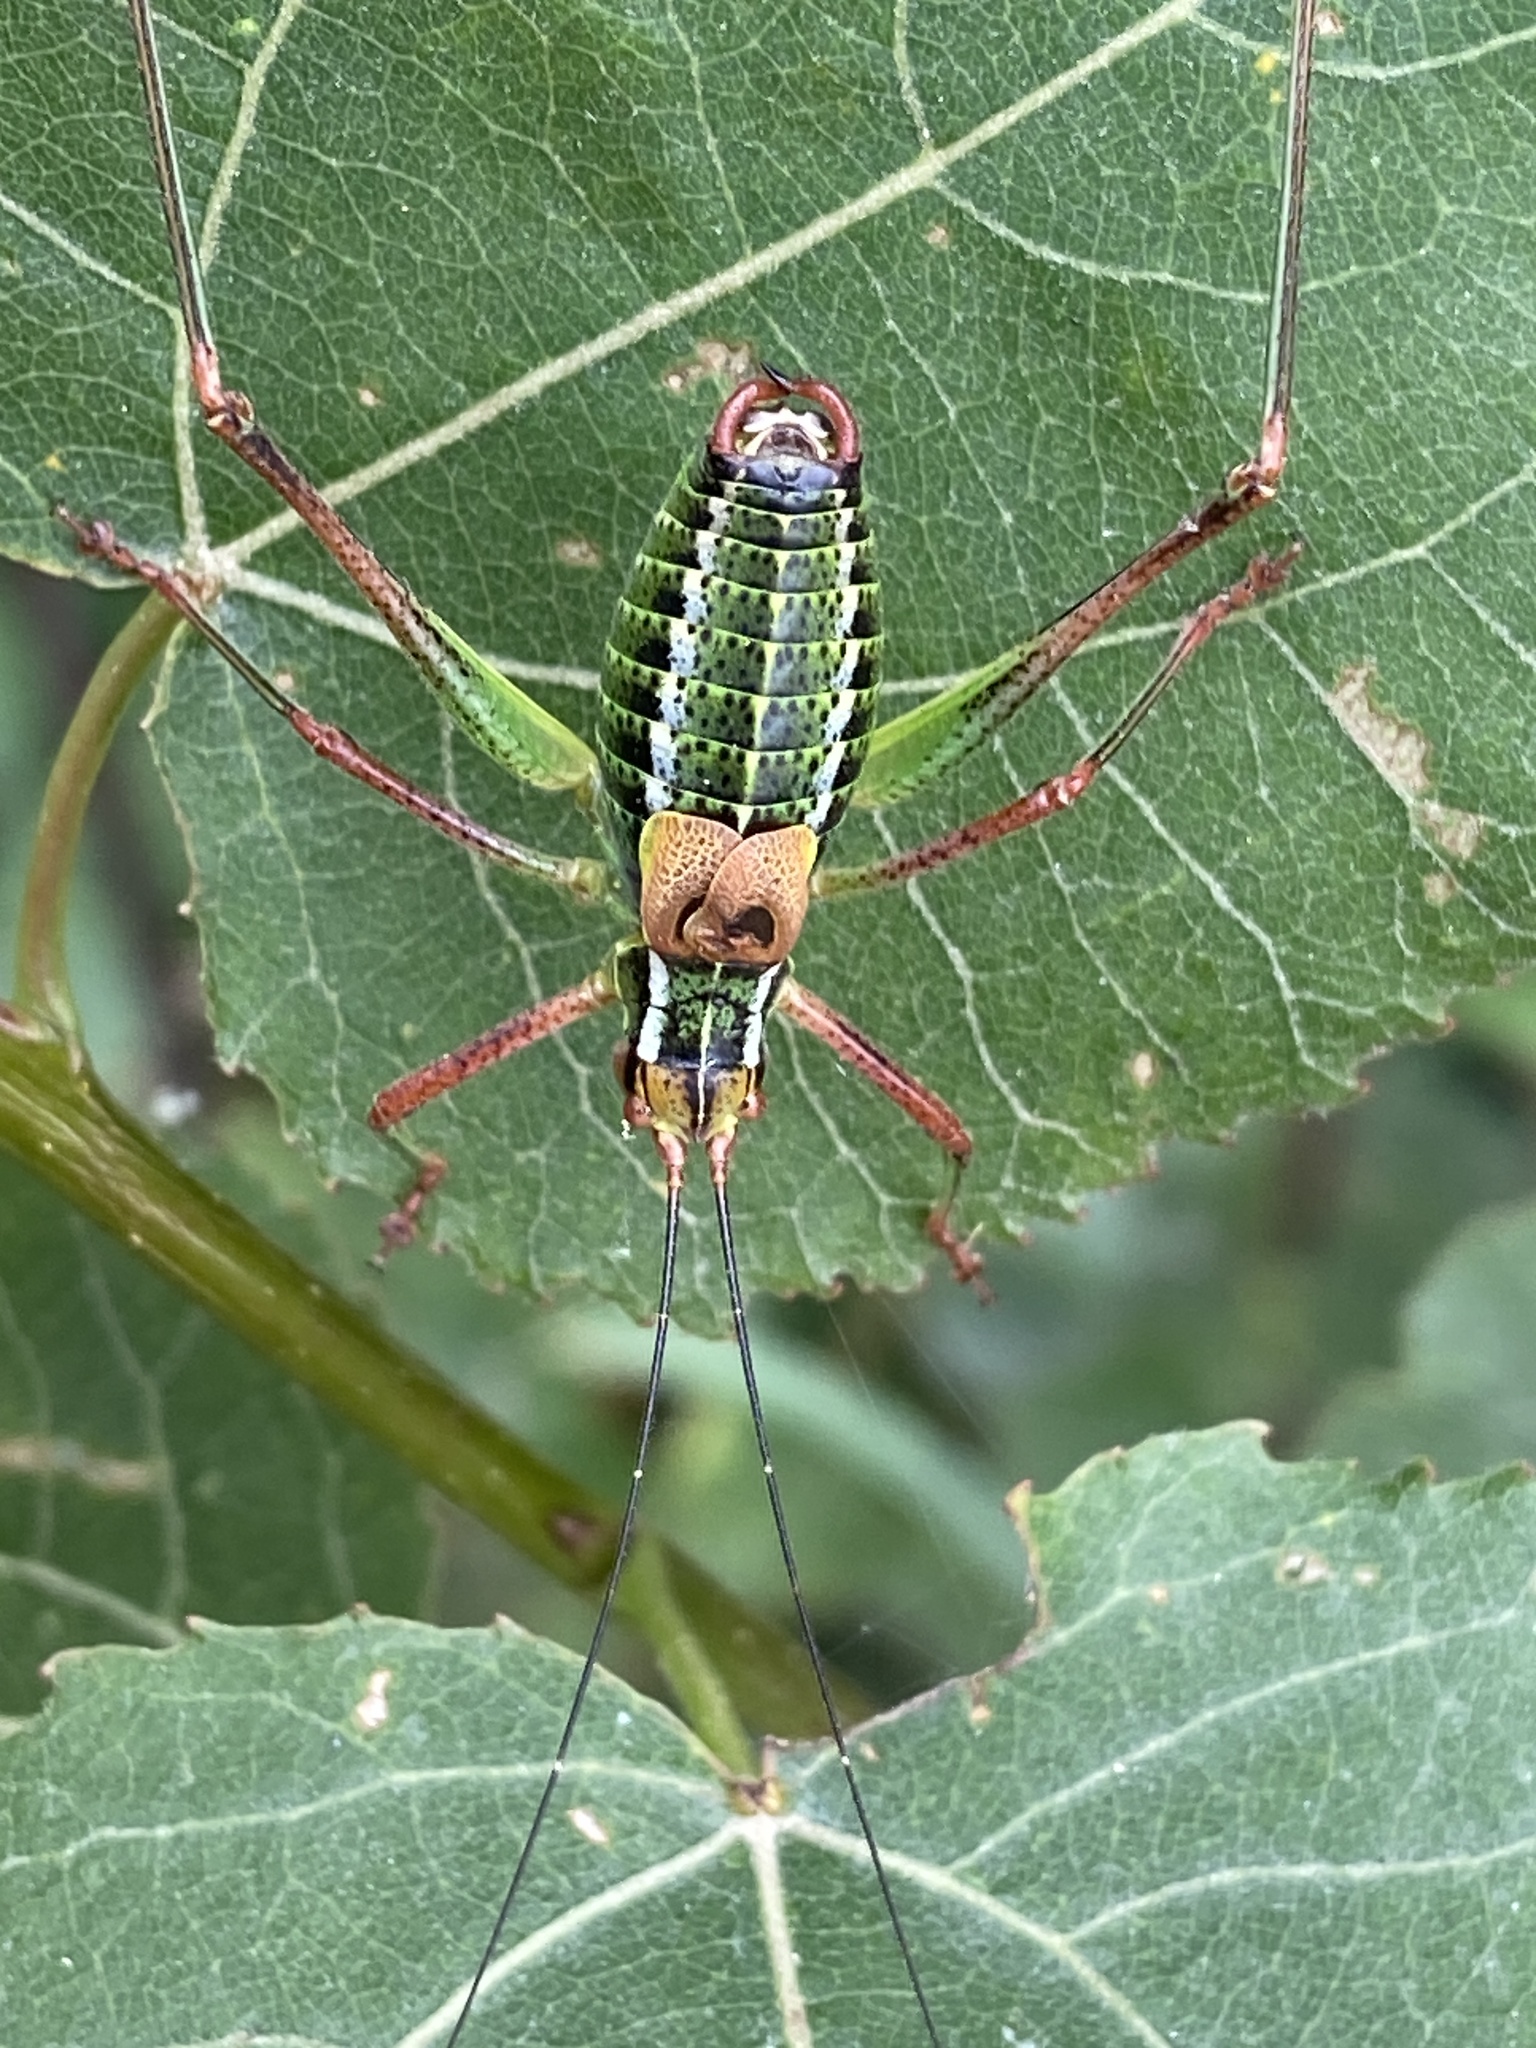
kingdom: Animalia
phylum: Arthropoda
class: Insecta
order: Orthoptera
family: Tettigoniidae
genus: Barbitistes
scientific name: Barbitistes constrictus
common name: Eastern saw-tailed bush cricket
